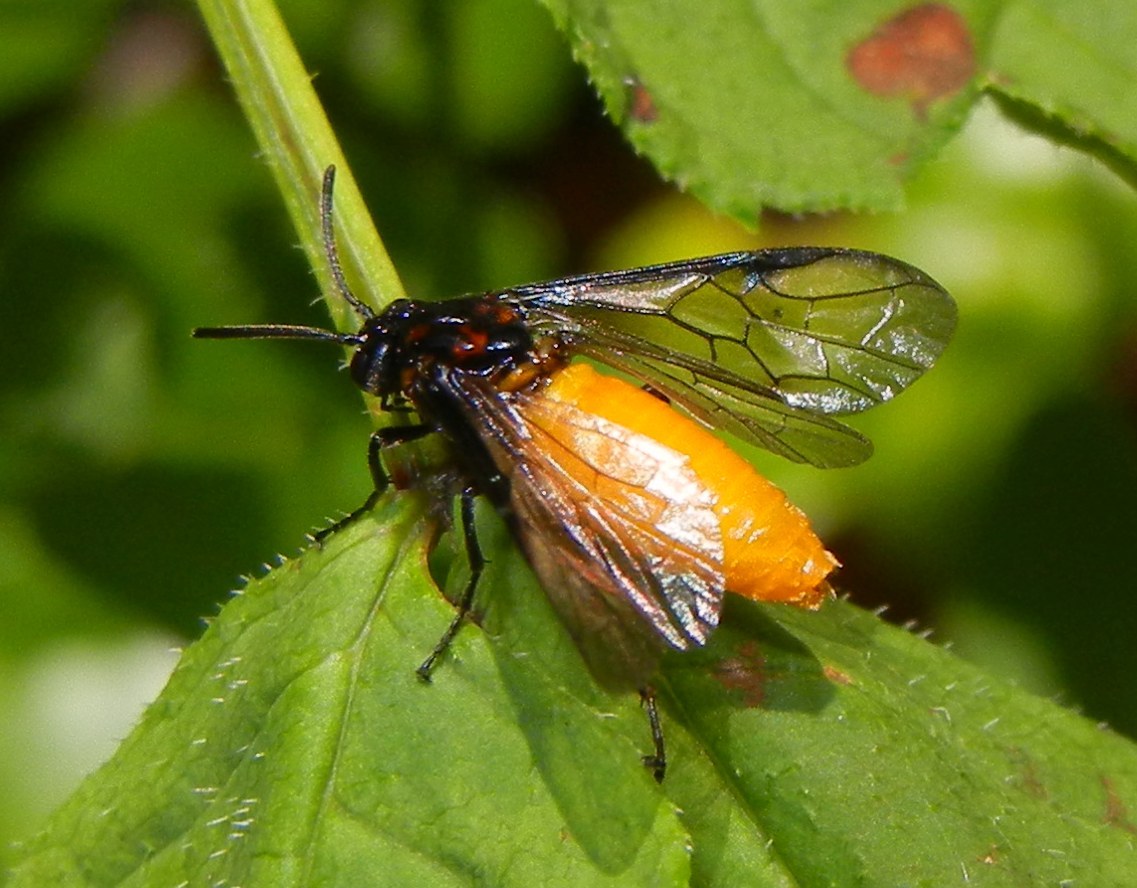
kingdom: Animalia
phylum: Arthropoda
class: Insecta
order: Hymenoptera
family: Argidae
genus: Arge
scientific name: Arge pagana
